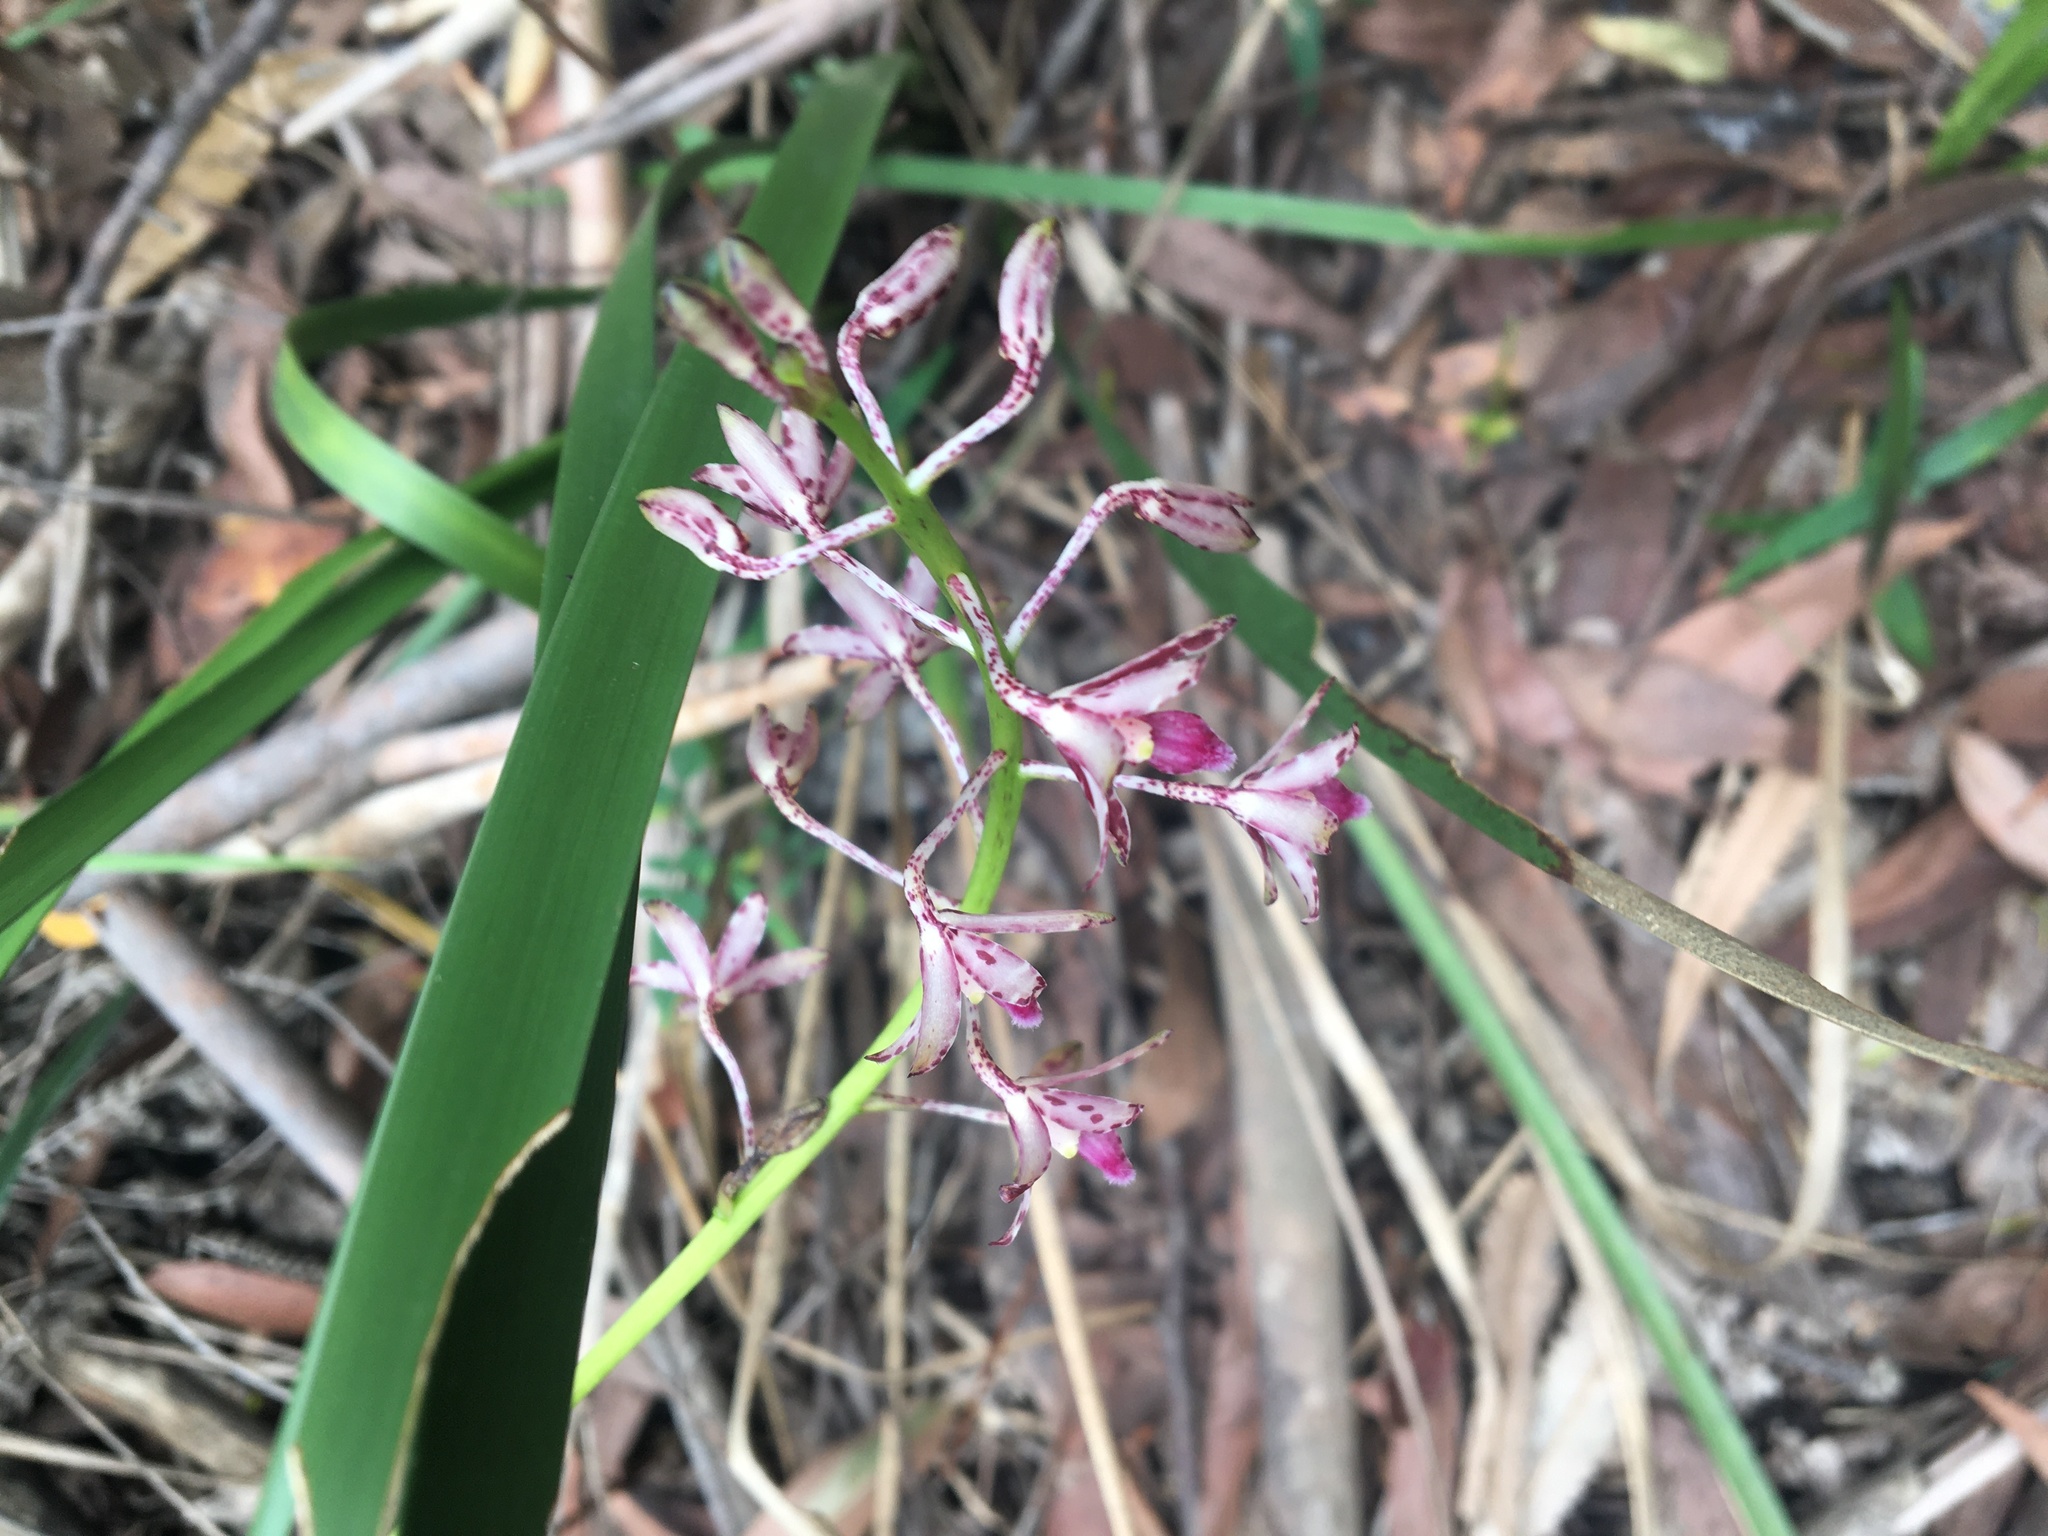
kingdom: Plantae
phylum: Tracheophyta
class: Liliopsida
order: Asparagales
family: Orchidaceae
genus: Dipodium
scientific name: Dipodium variegatum
